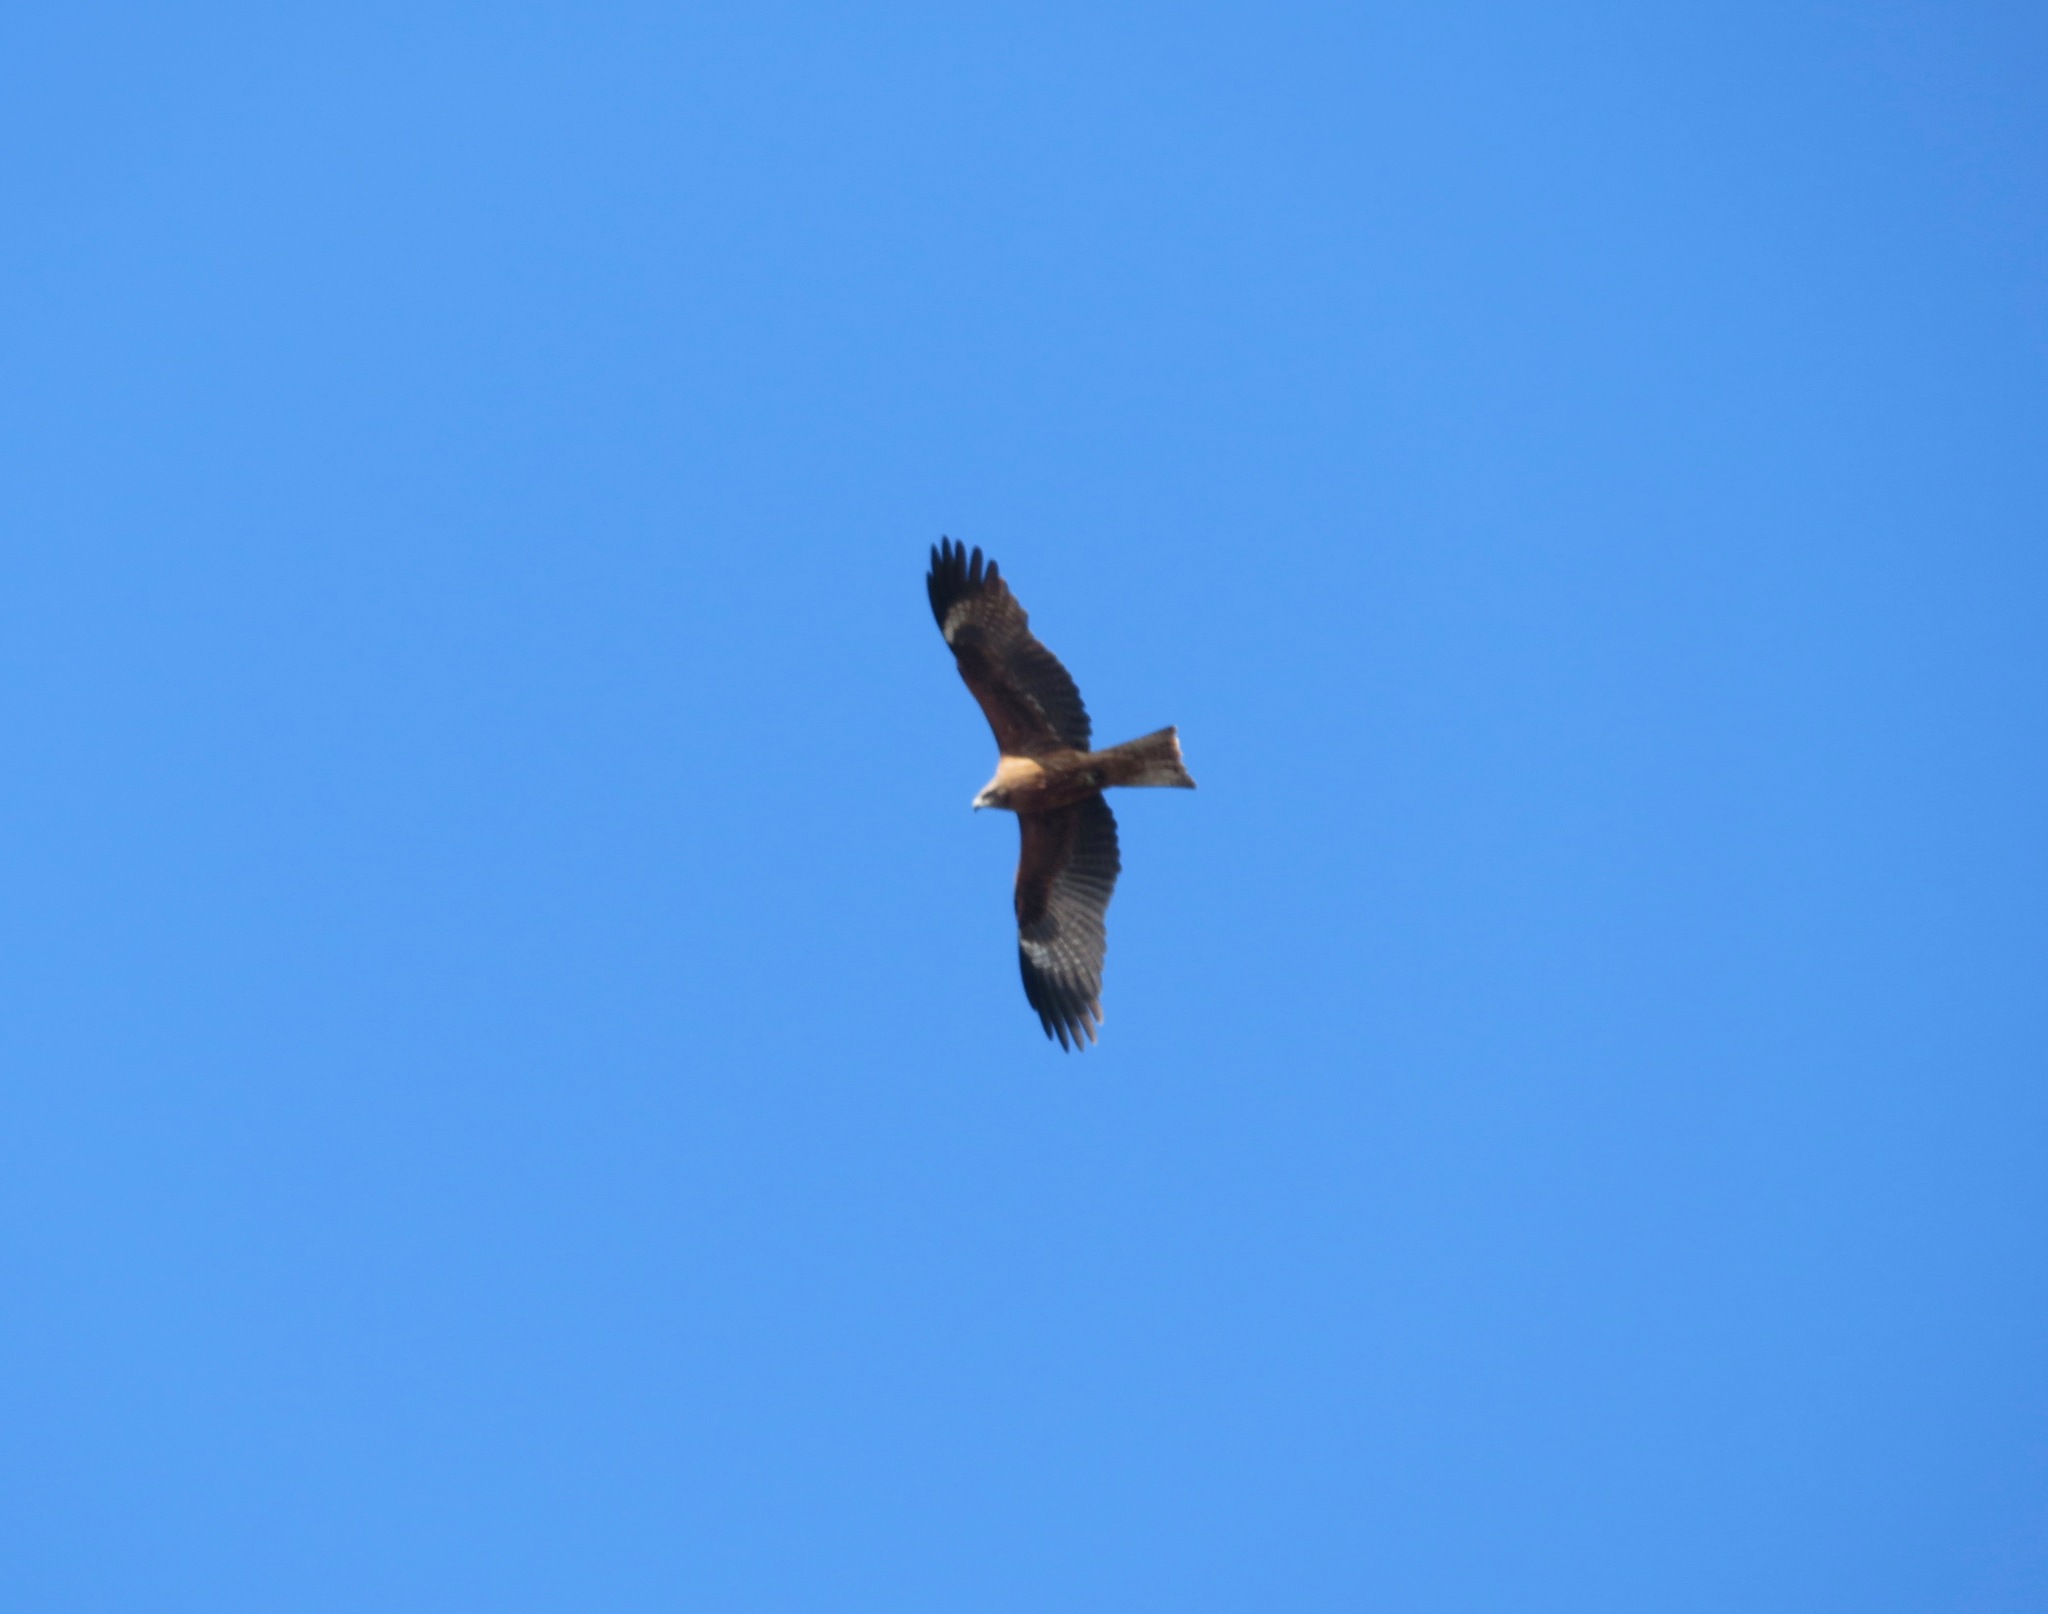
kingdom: Animalia
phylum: Chordata
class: Aves
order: Accipitriformes
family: Accipitridae
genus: Milvus
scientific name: Milvus migrans
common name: Black kite
